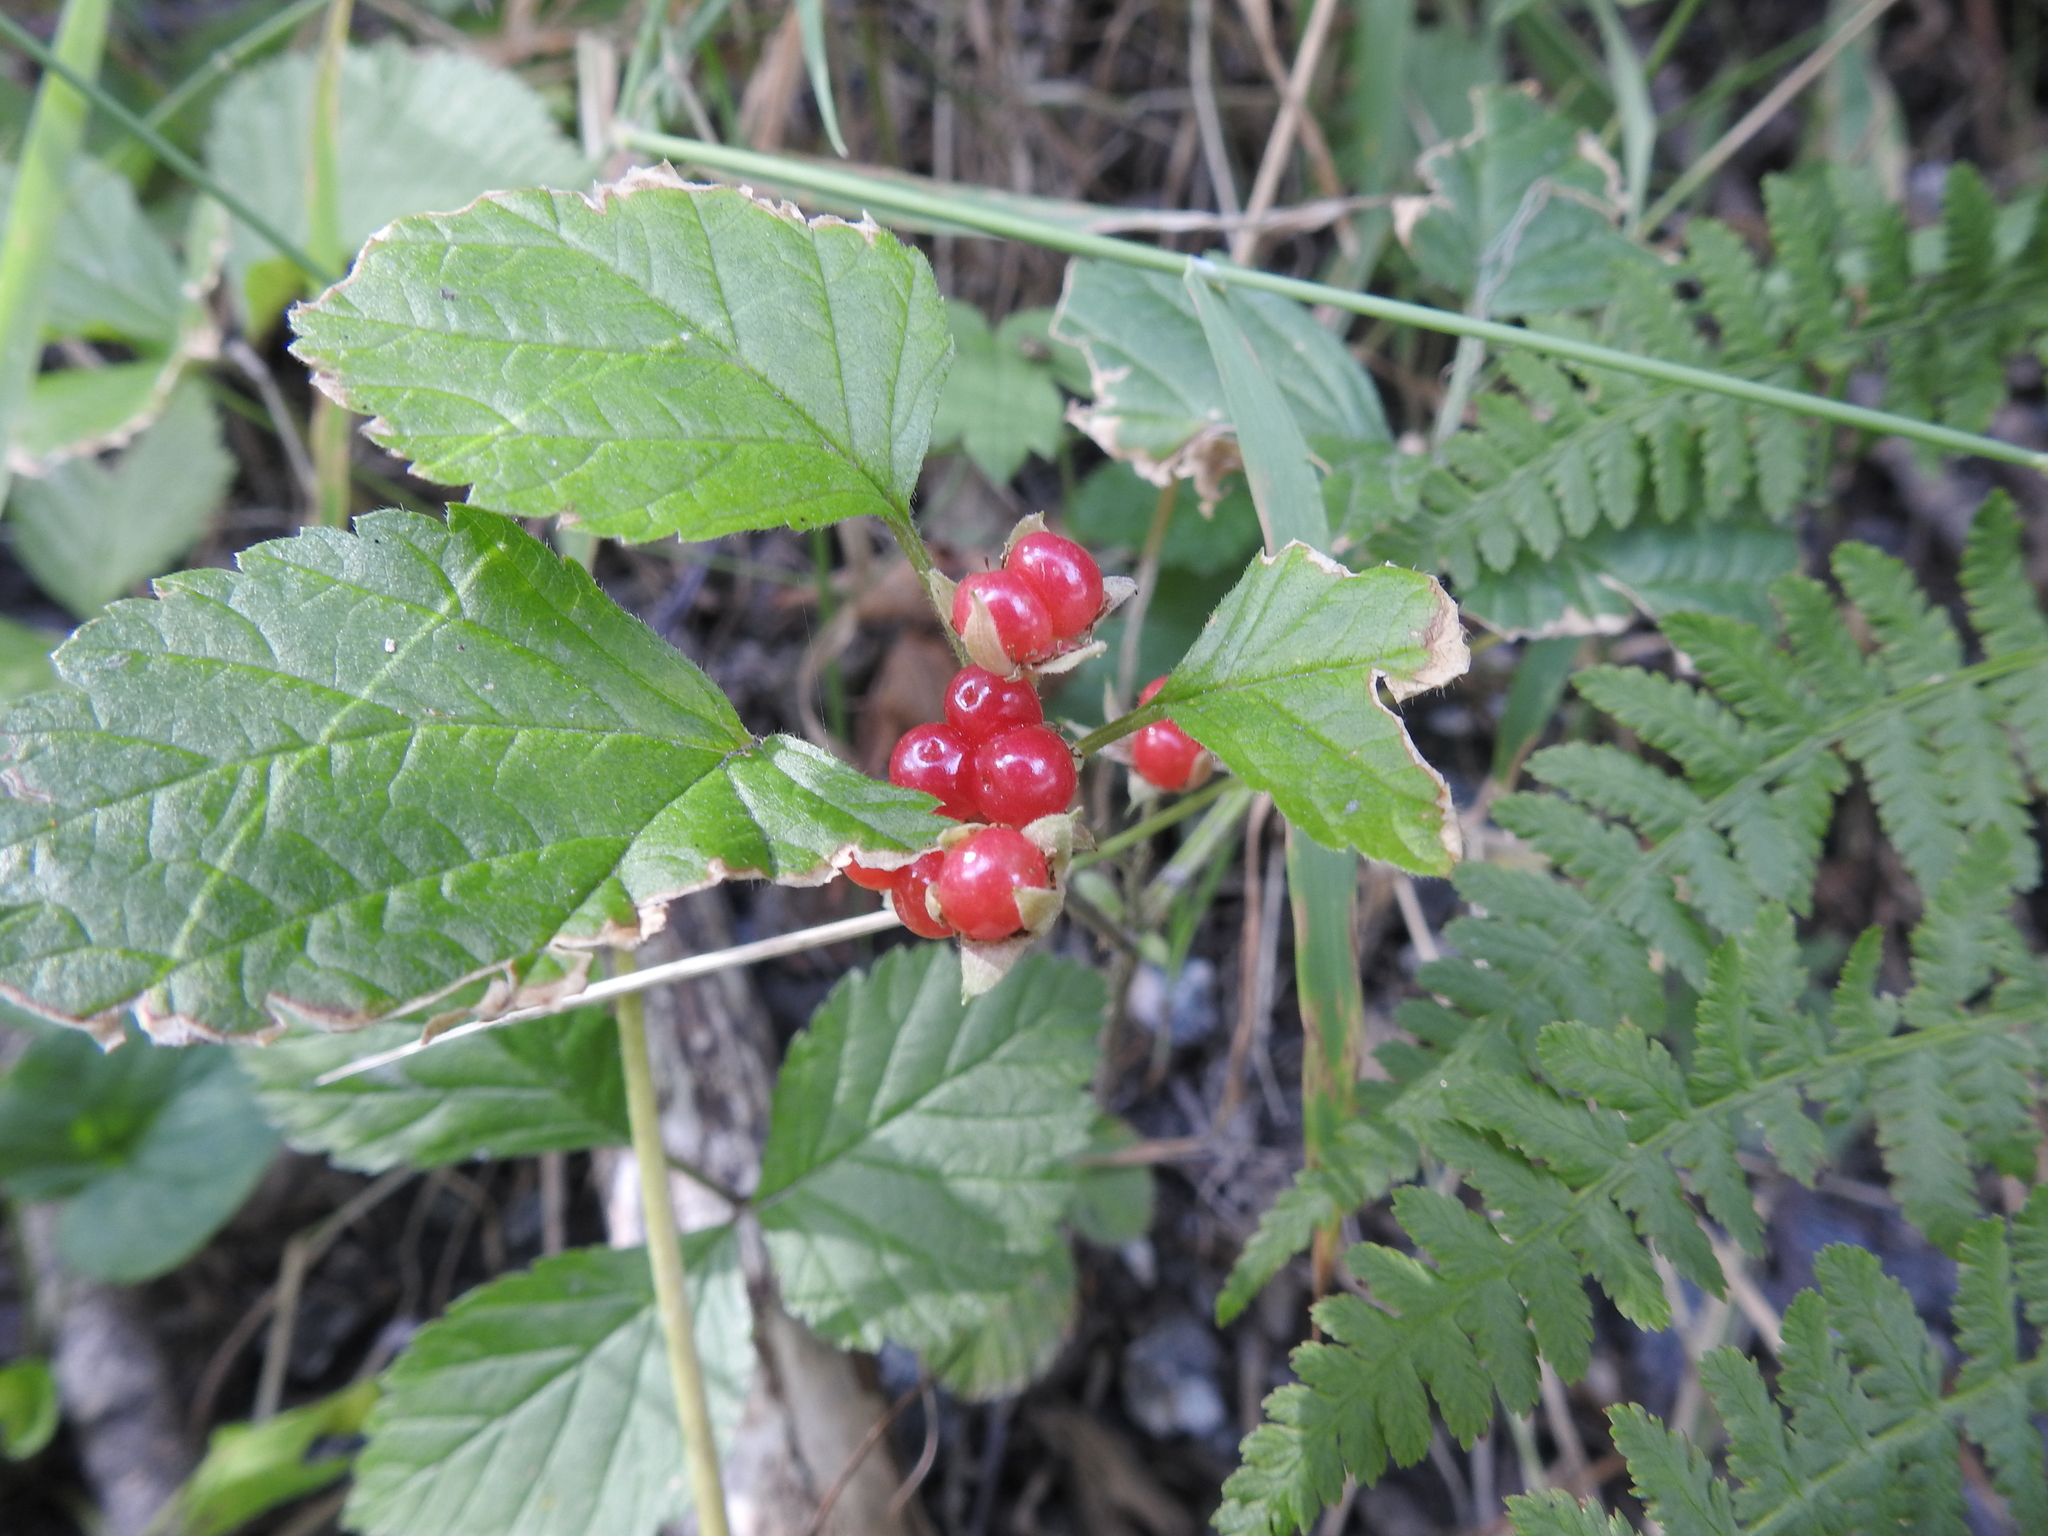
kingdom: Plantae
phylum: Tracheophyta
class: Magnoliopsida
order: Rosales
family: Rosaceae
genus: Rubus
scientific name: Rubus saxatilis
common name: Stone bramble
